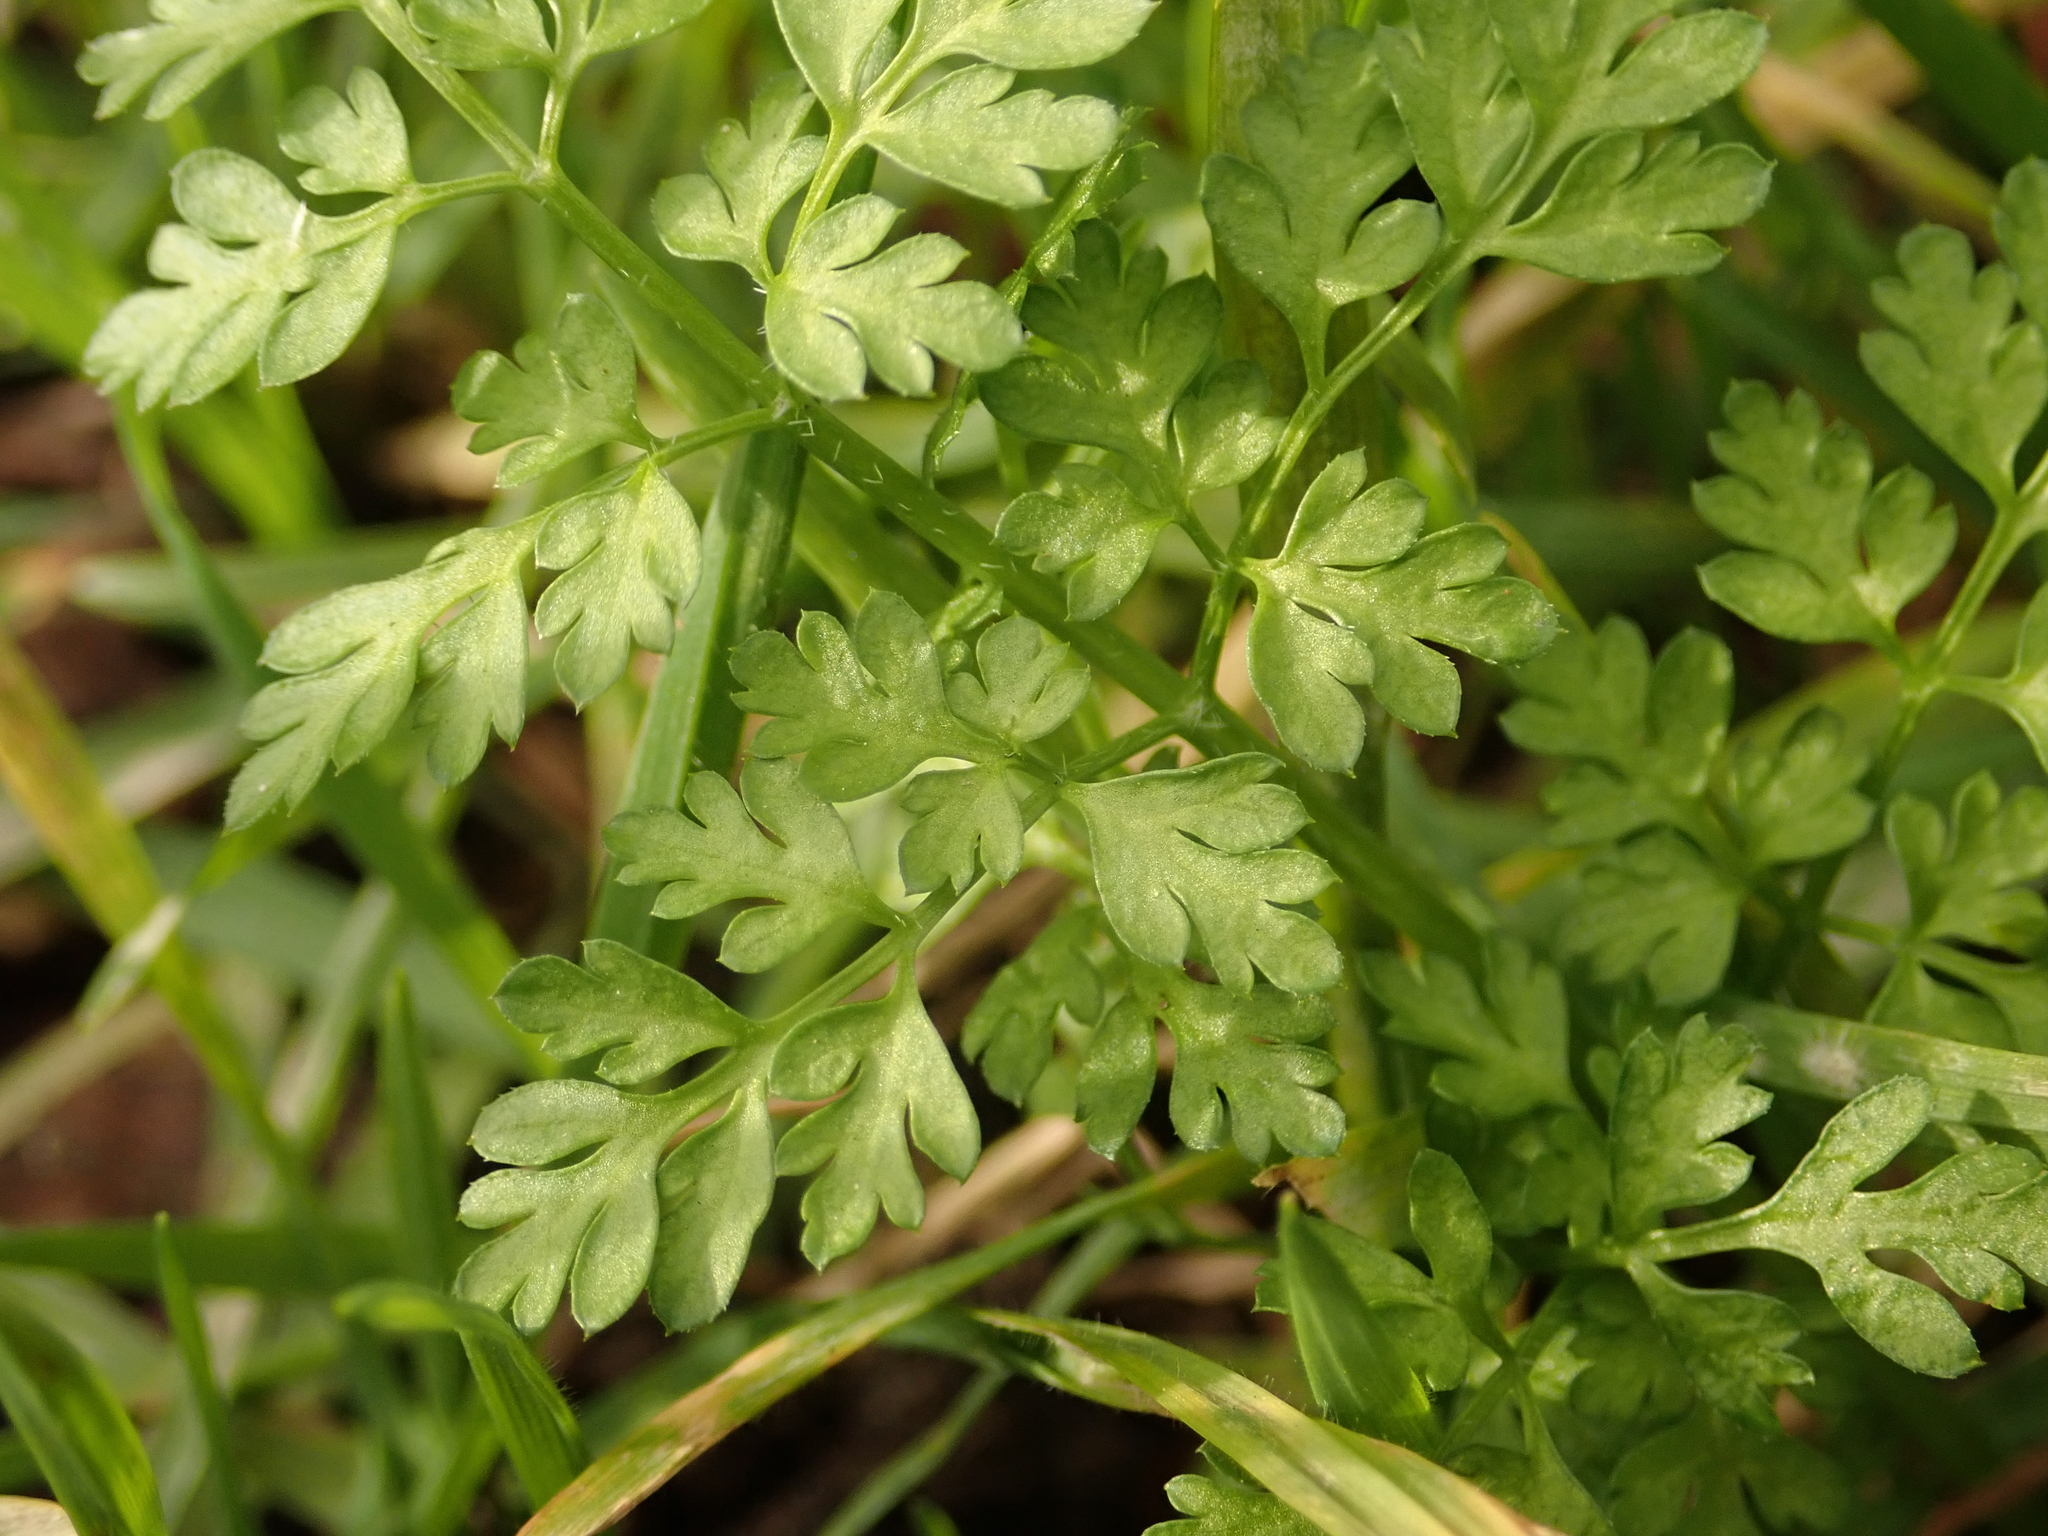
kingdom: Plantae
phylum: Tracheophyta
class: Magnoliopsida
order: Apiales
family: Apiaceae
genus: Anthriscus
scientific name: Anthriscus caucalis
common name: Bur chervil
